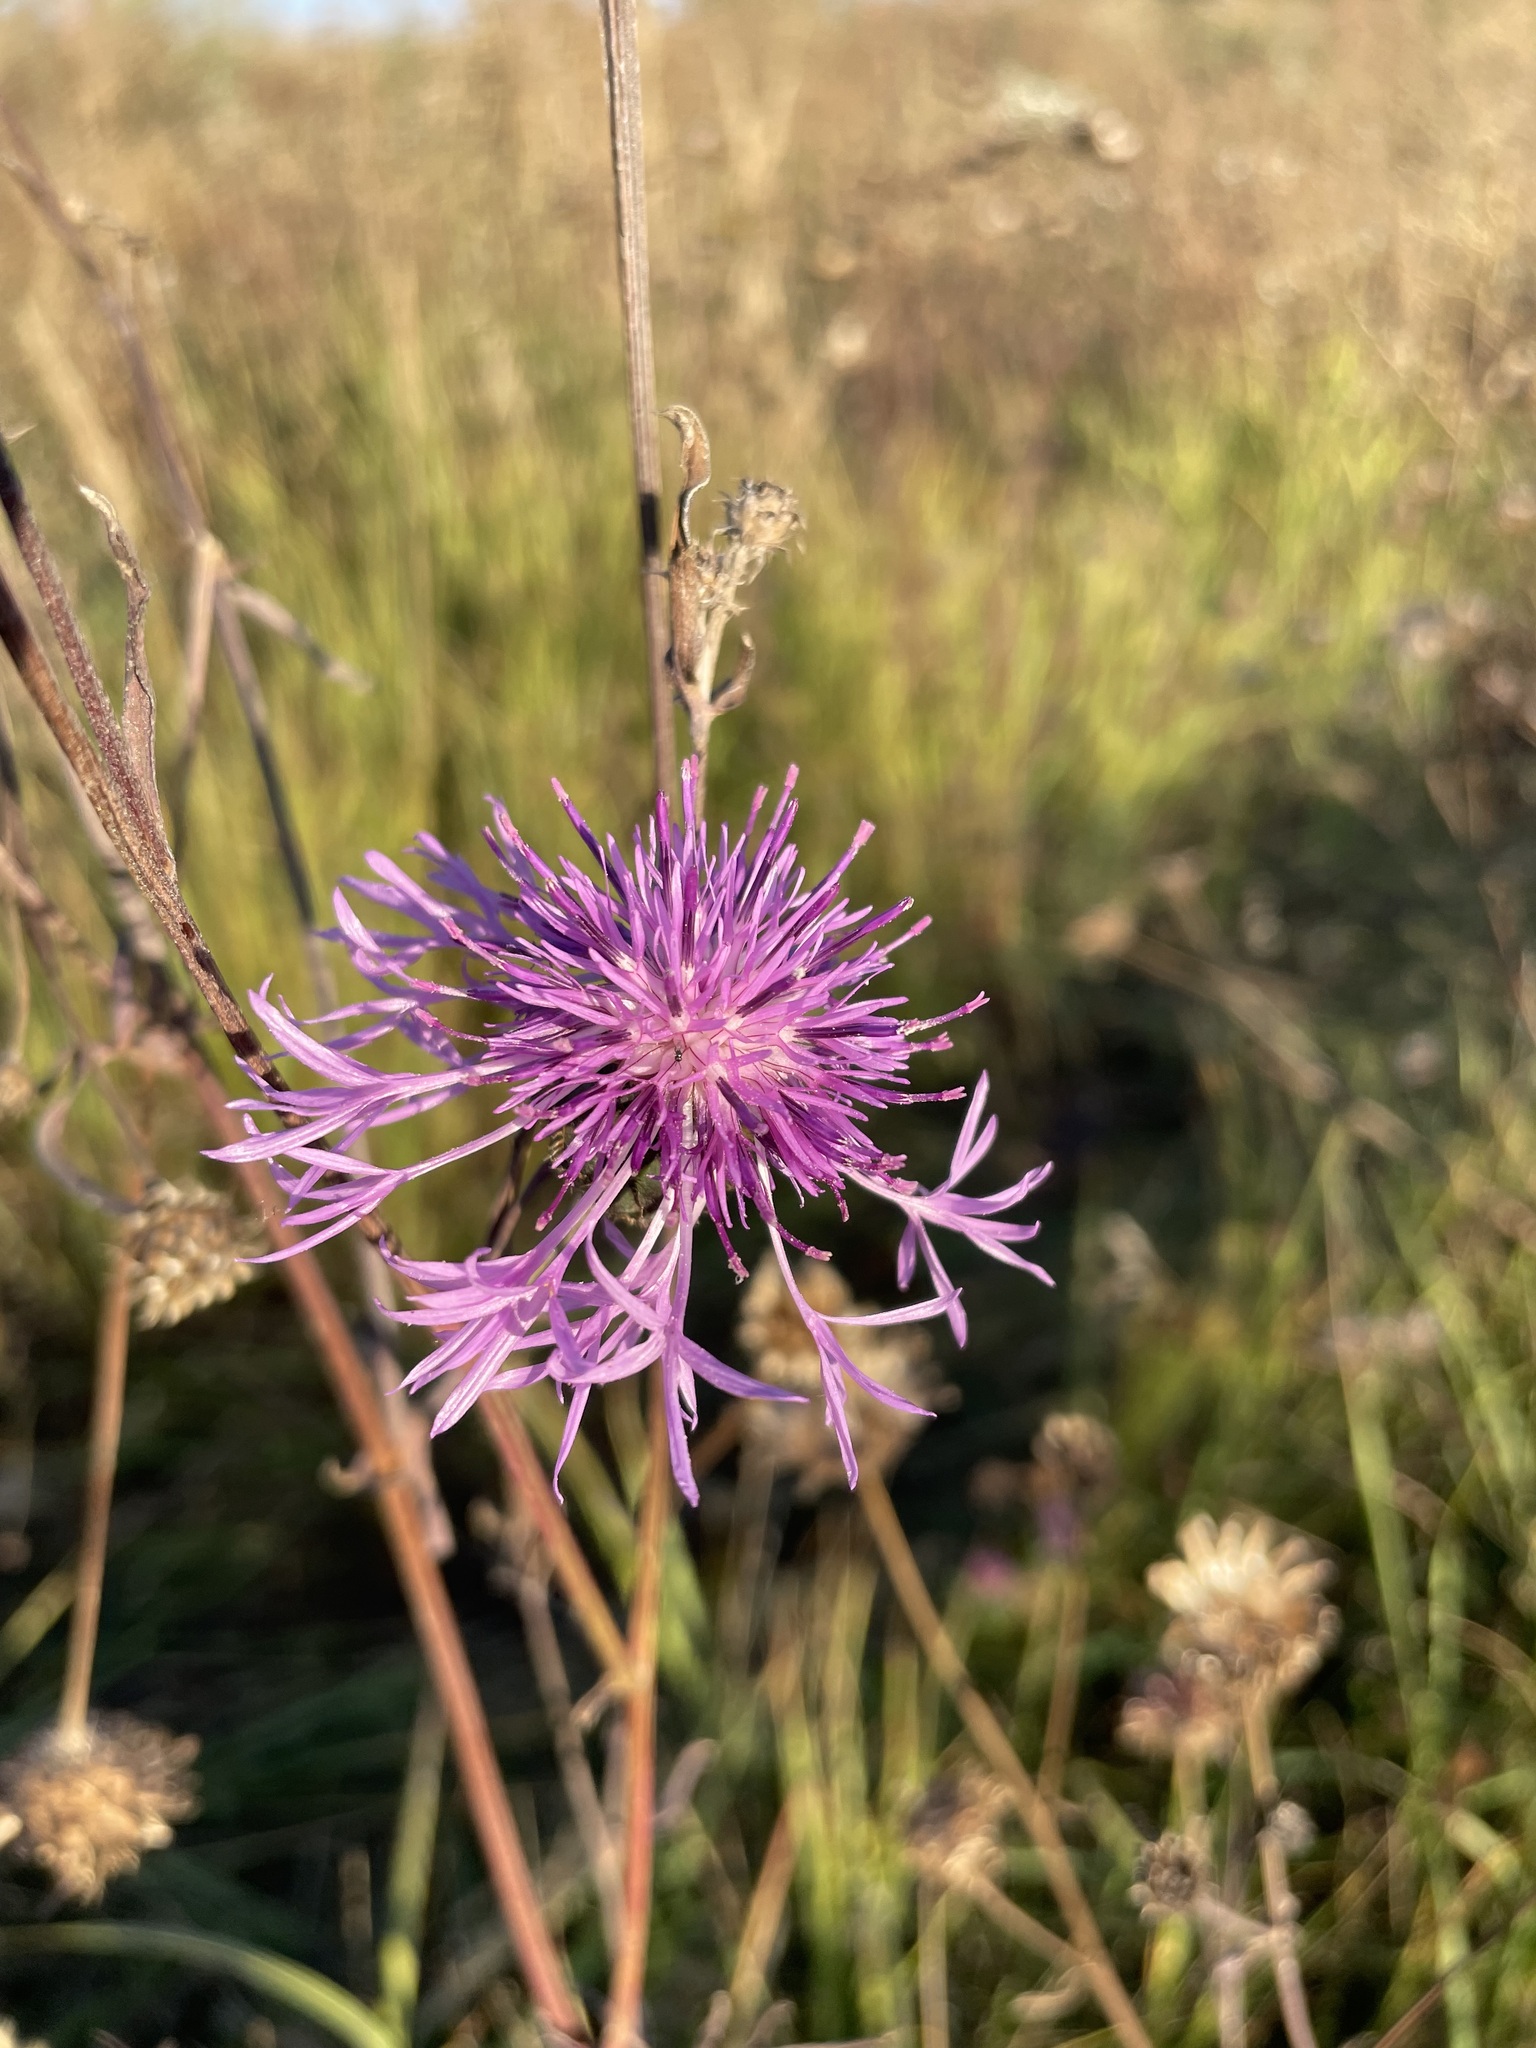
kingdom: Plantae
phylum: Tracheophyta
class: Magnoliopsida
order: Asterales
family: Asteraceae
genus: Centaurea
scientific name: Centaurea scabiosa
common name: Greater knapweed
